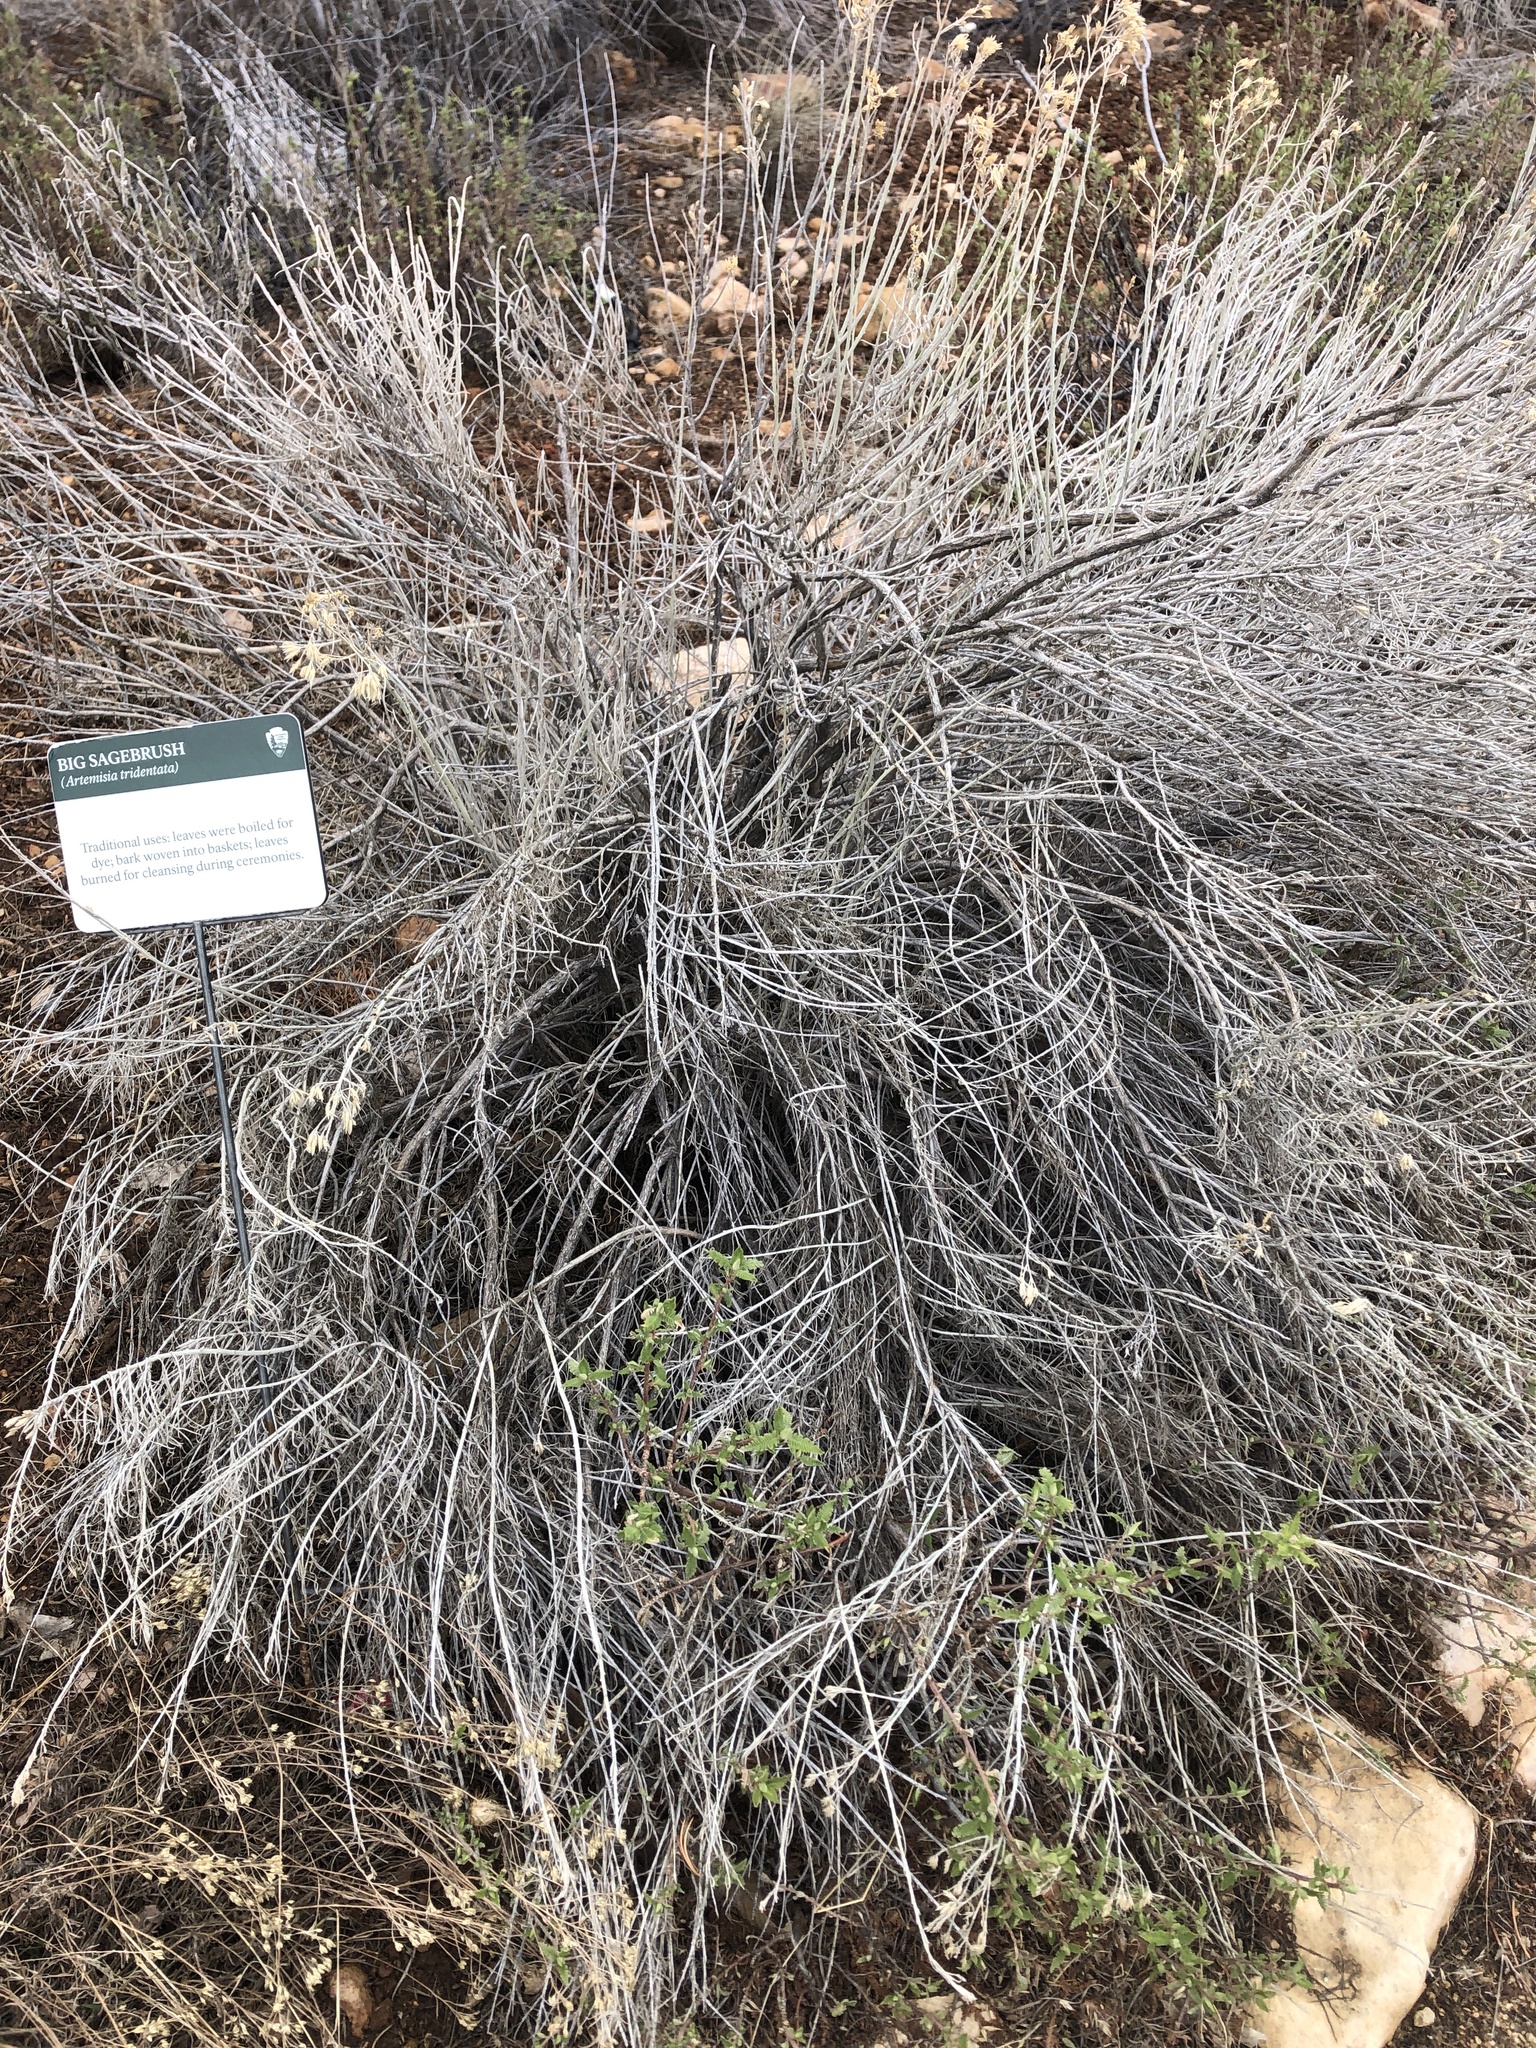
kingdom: Plantae
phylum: Tracheophyta
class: Magnoliopsida
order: Asterales
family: Asteraceae
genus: Artemisia
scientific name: Artemisia tridentata
